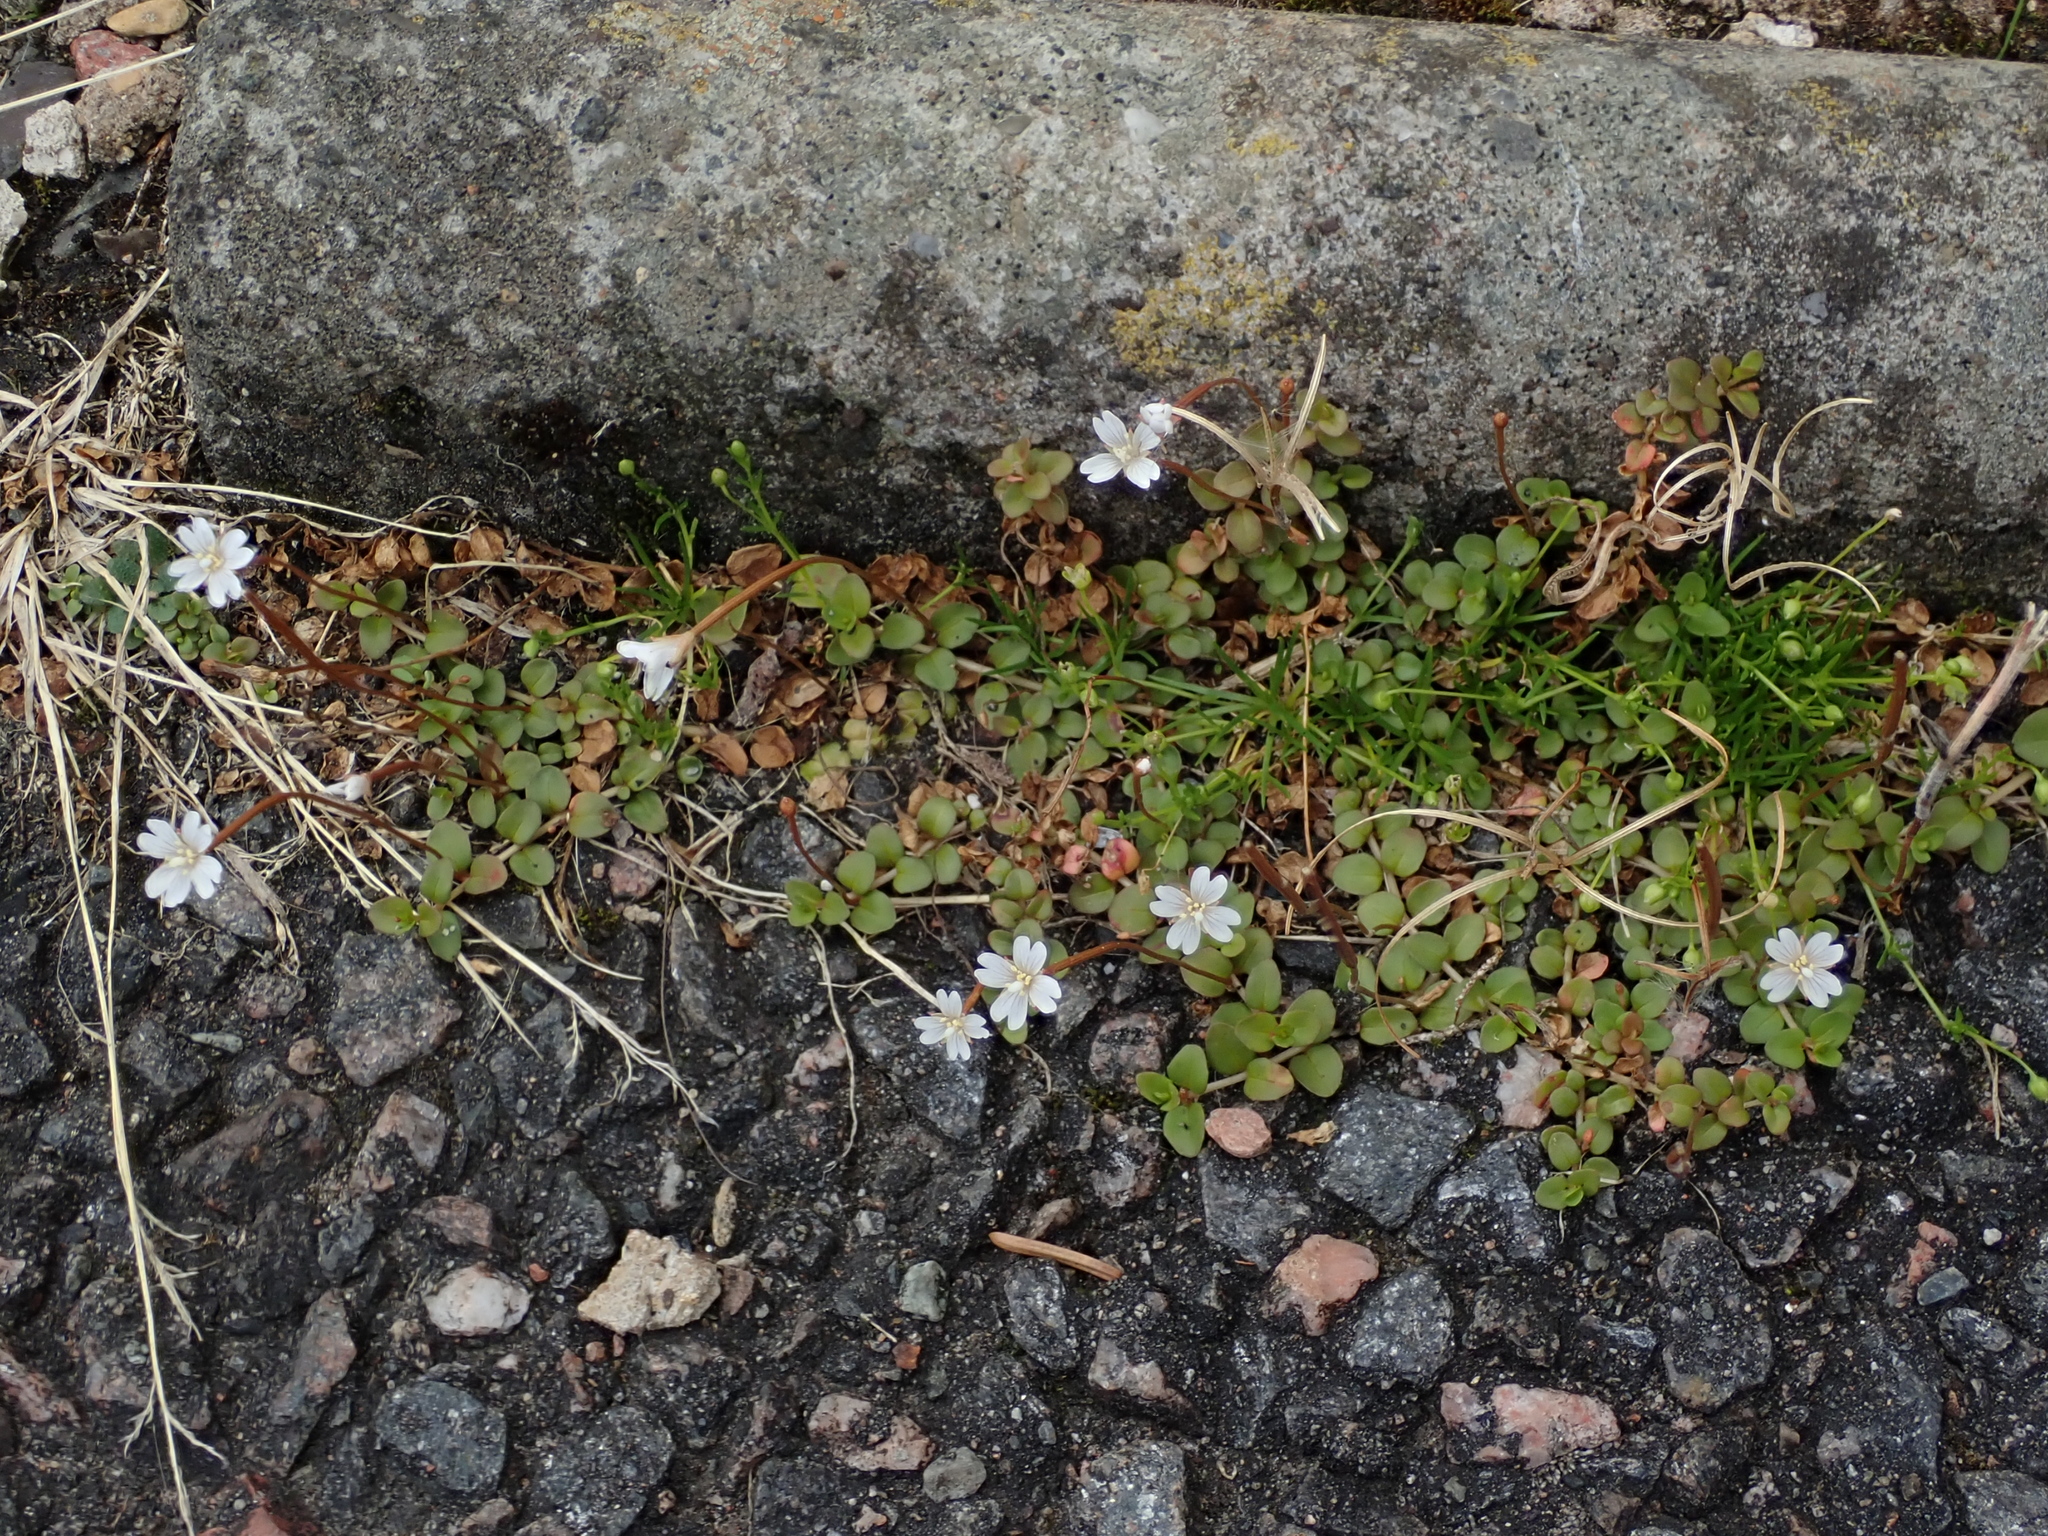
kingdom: Plantae
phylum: Tracheophyta
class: Magnoliopsida
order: Myrtales
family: Onagraceae
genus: Epilobium
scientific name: Epilobium brunnescens
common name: New zealand willowherb
